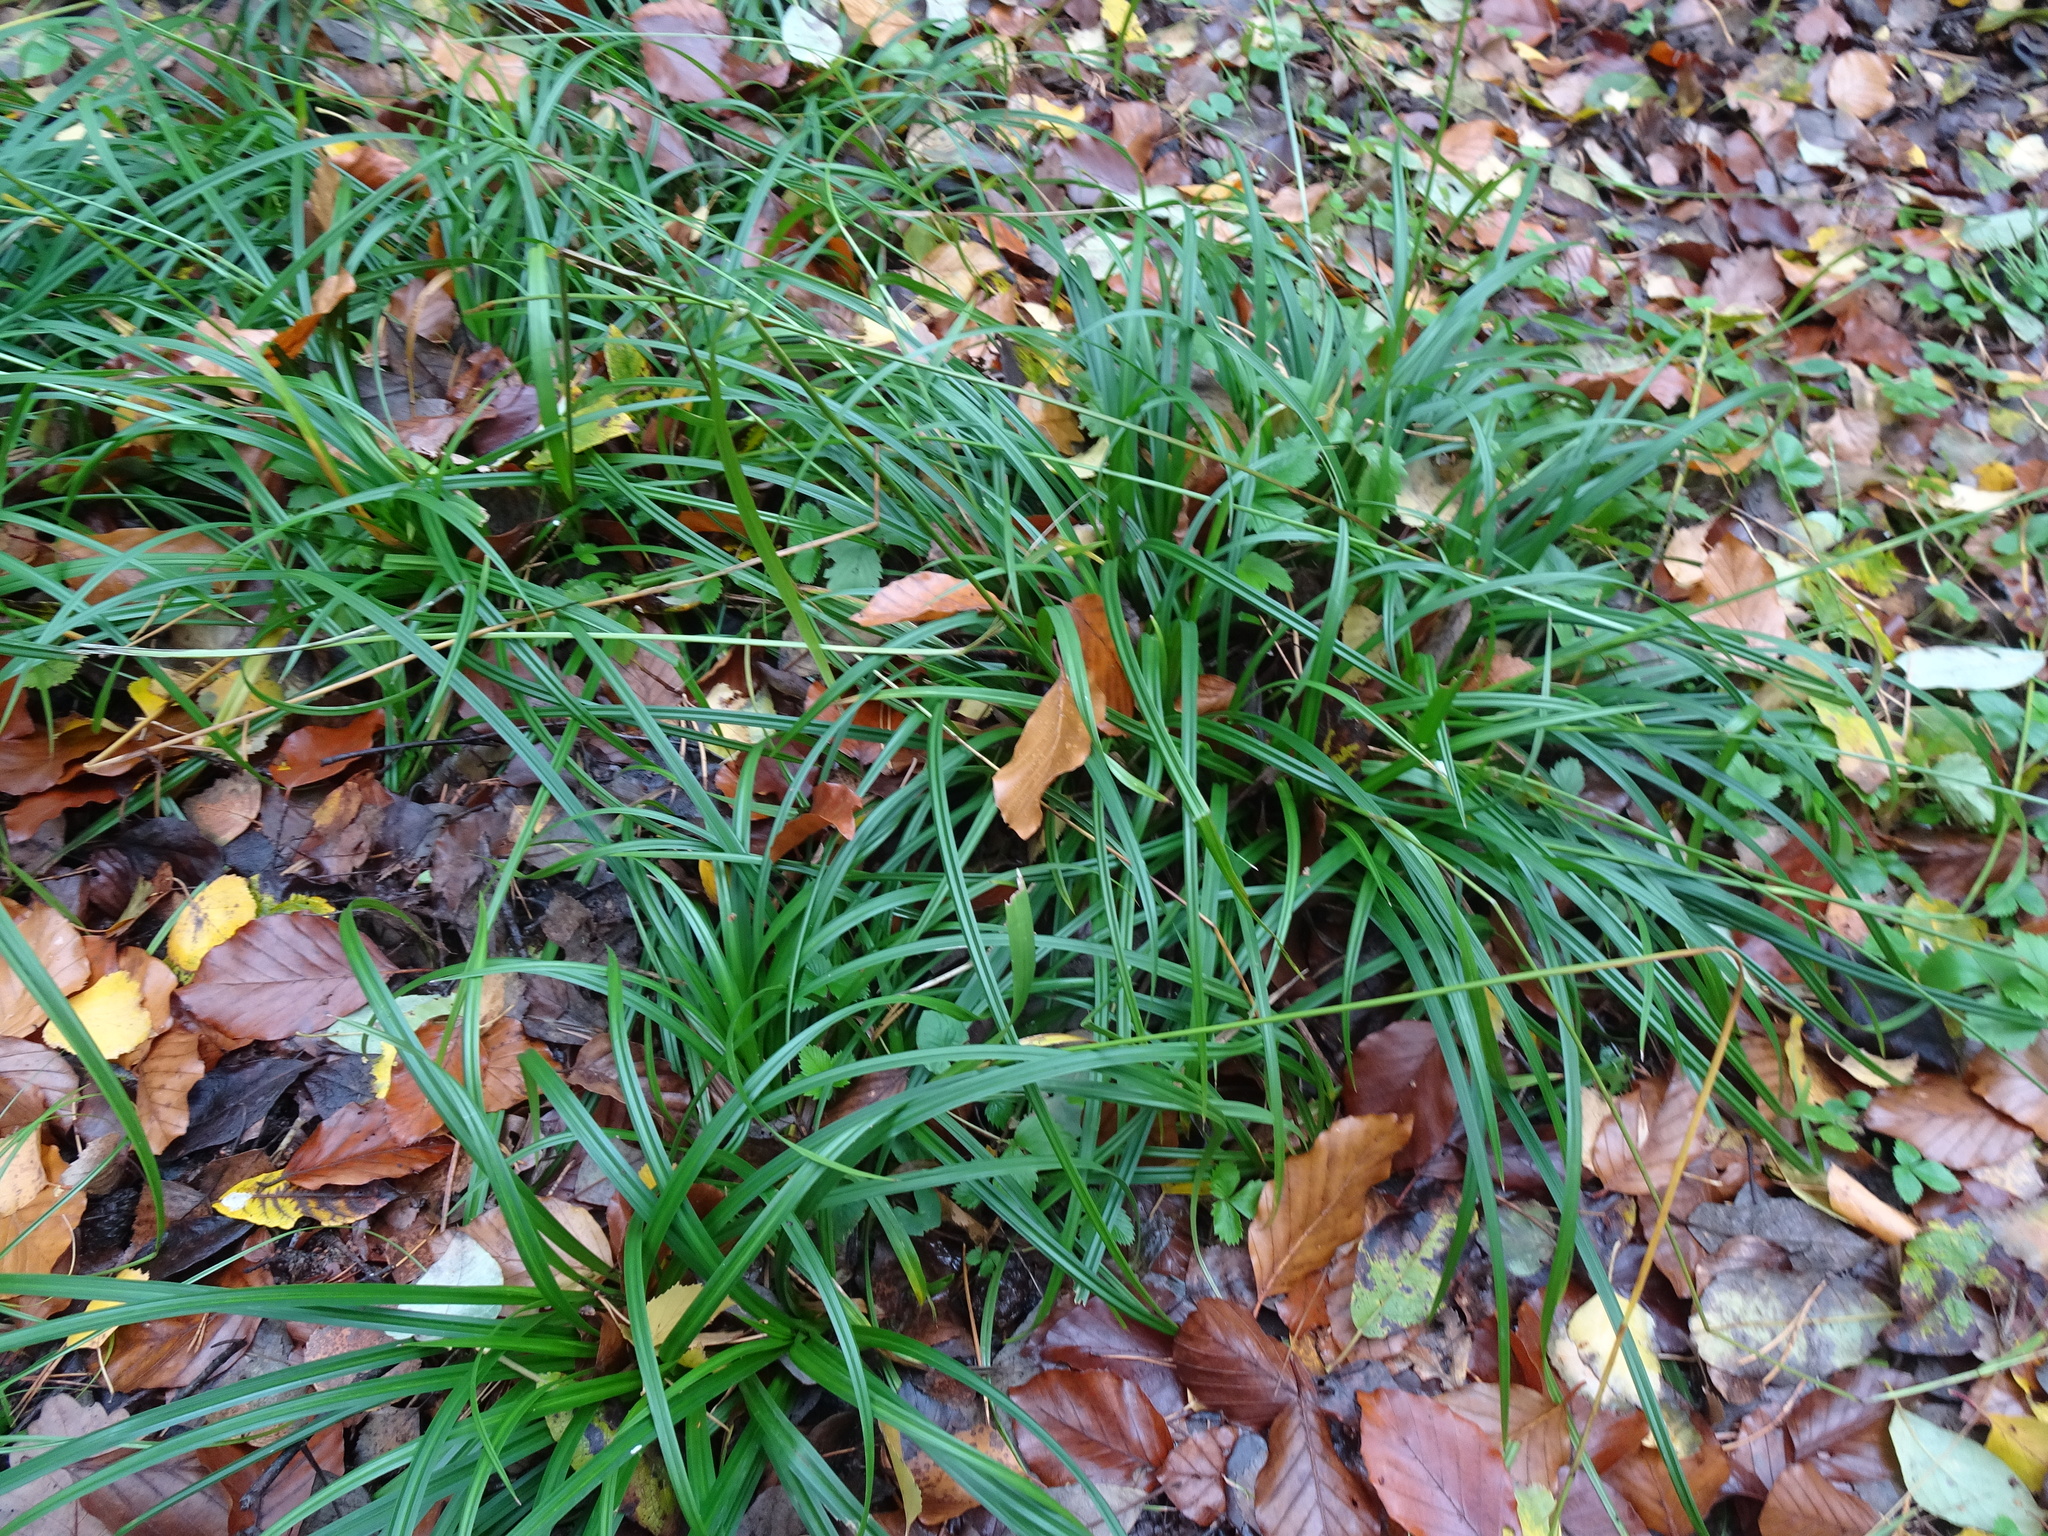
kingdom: Plantae
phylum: Tracheophyta
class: Liliopsida
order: Poales
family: Cyperaceae
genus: Carex
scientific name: Carex sylvatica
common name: Wood-sedge
